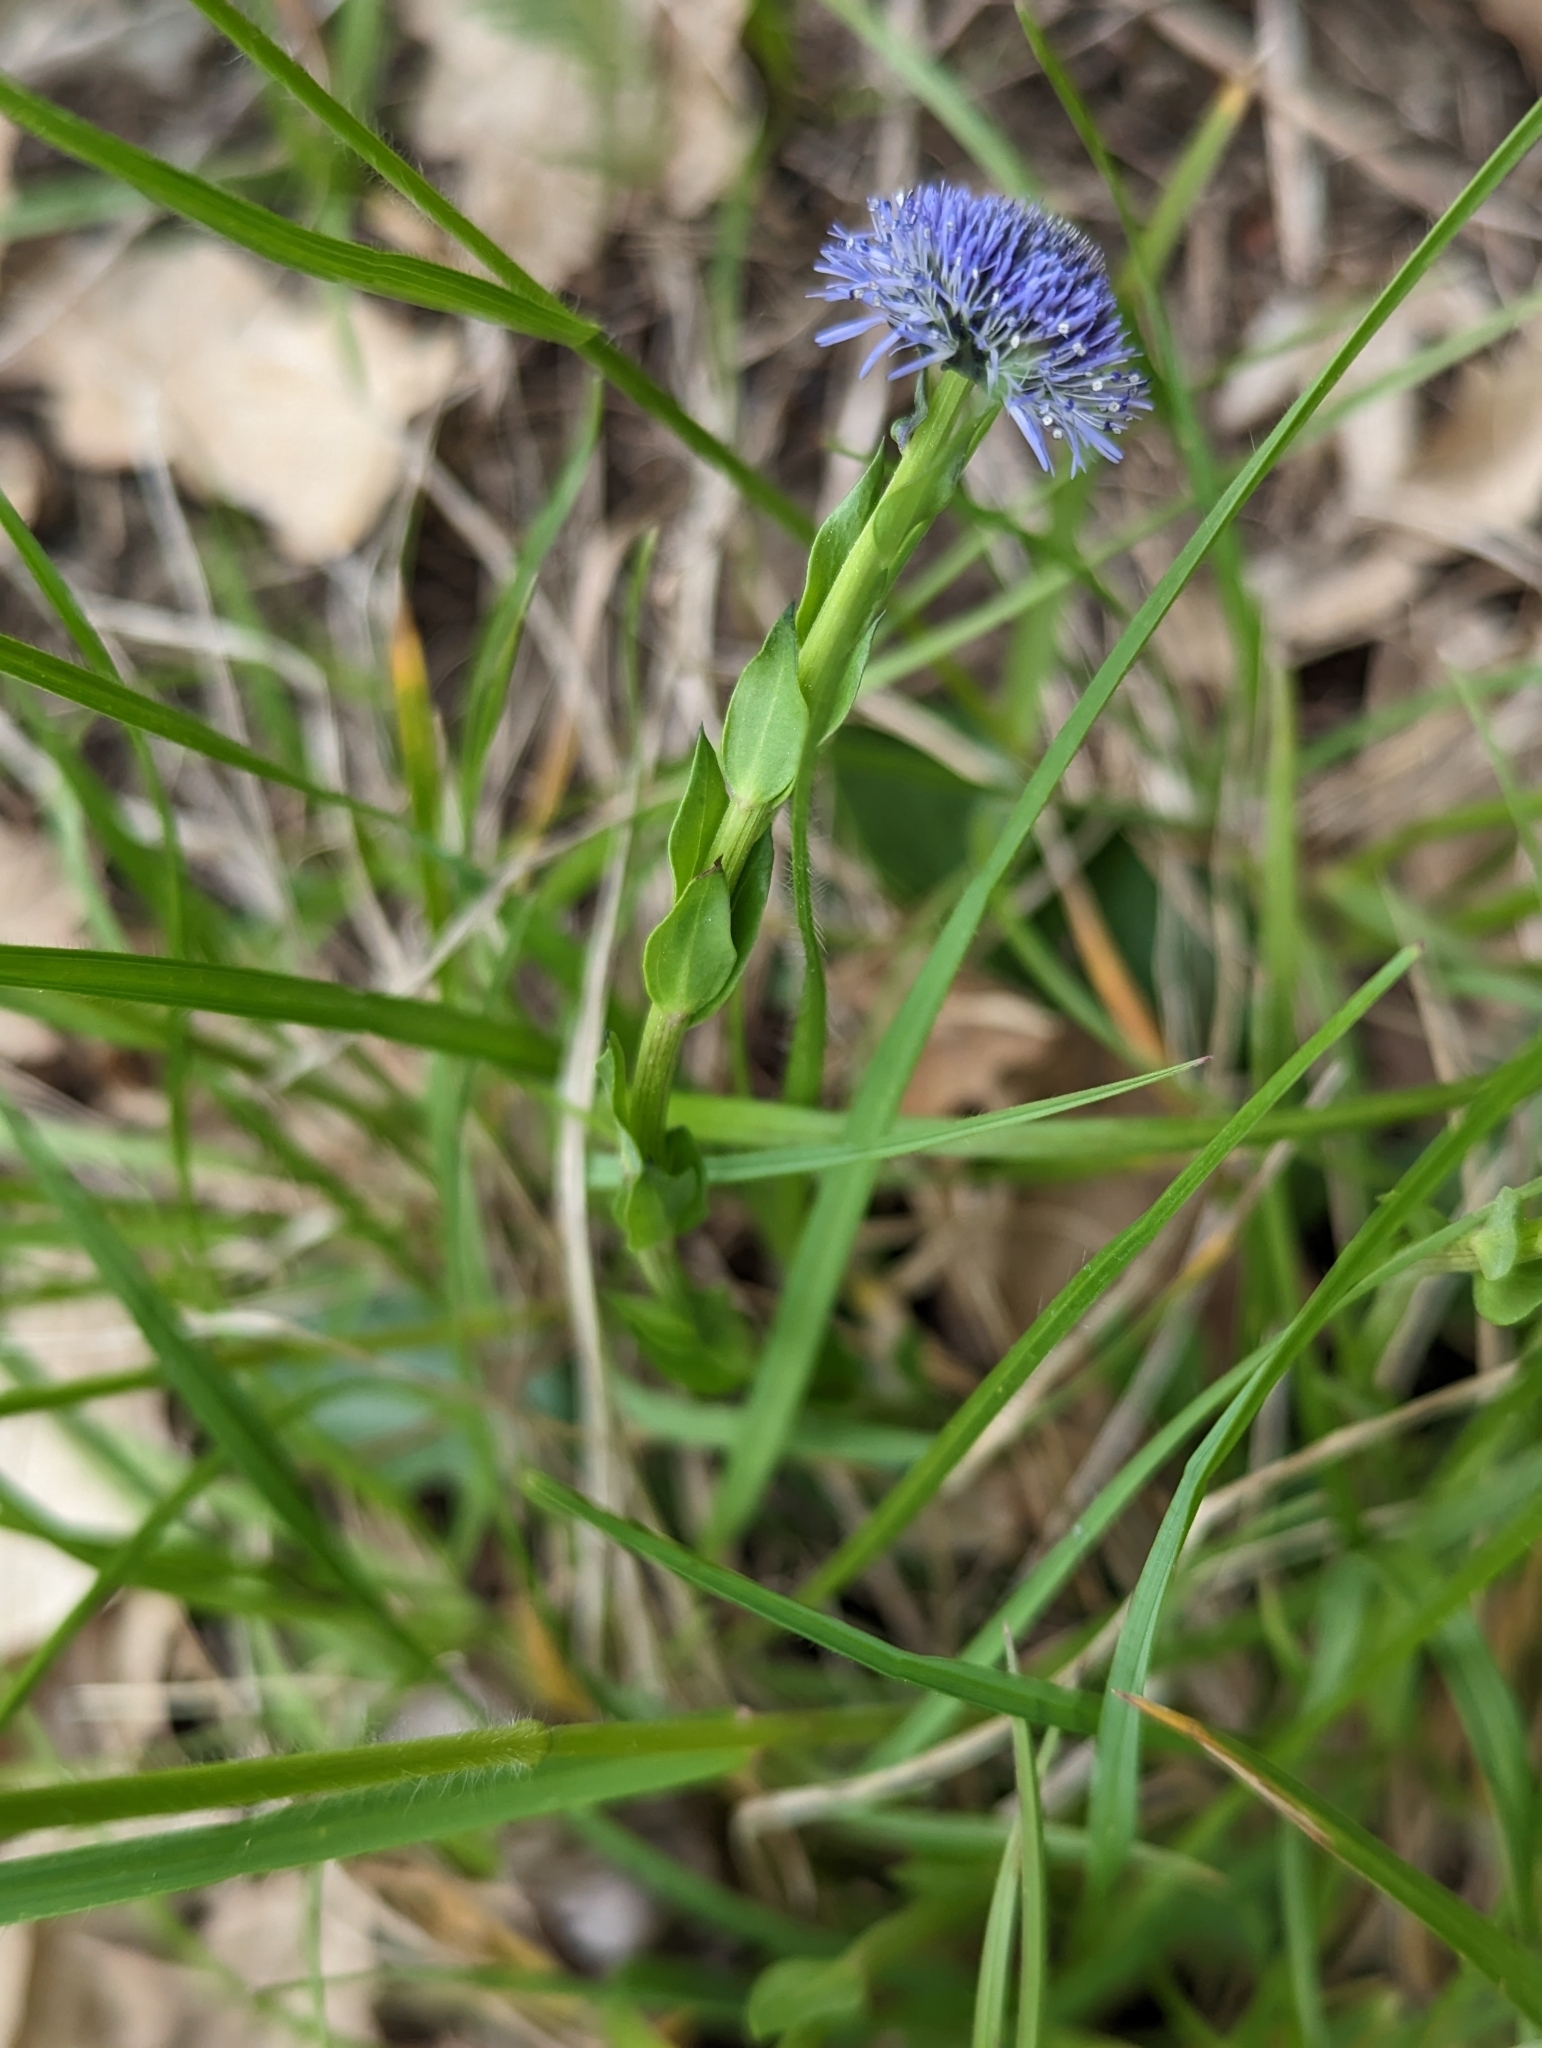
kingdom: Plantae
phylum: Tracheophyta
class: Magnoliopsida
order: Lamiales
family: Plantaginaceae
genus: Globularia
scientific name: Globularia bisnagarica
